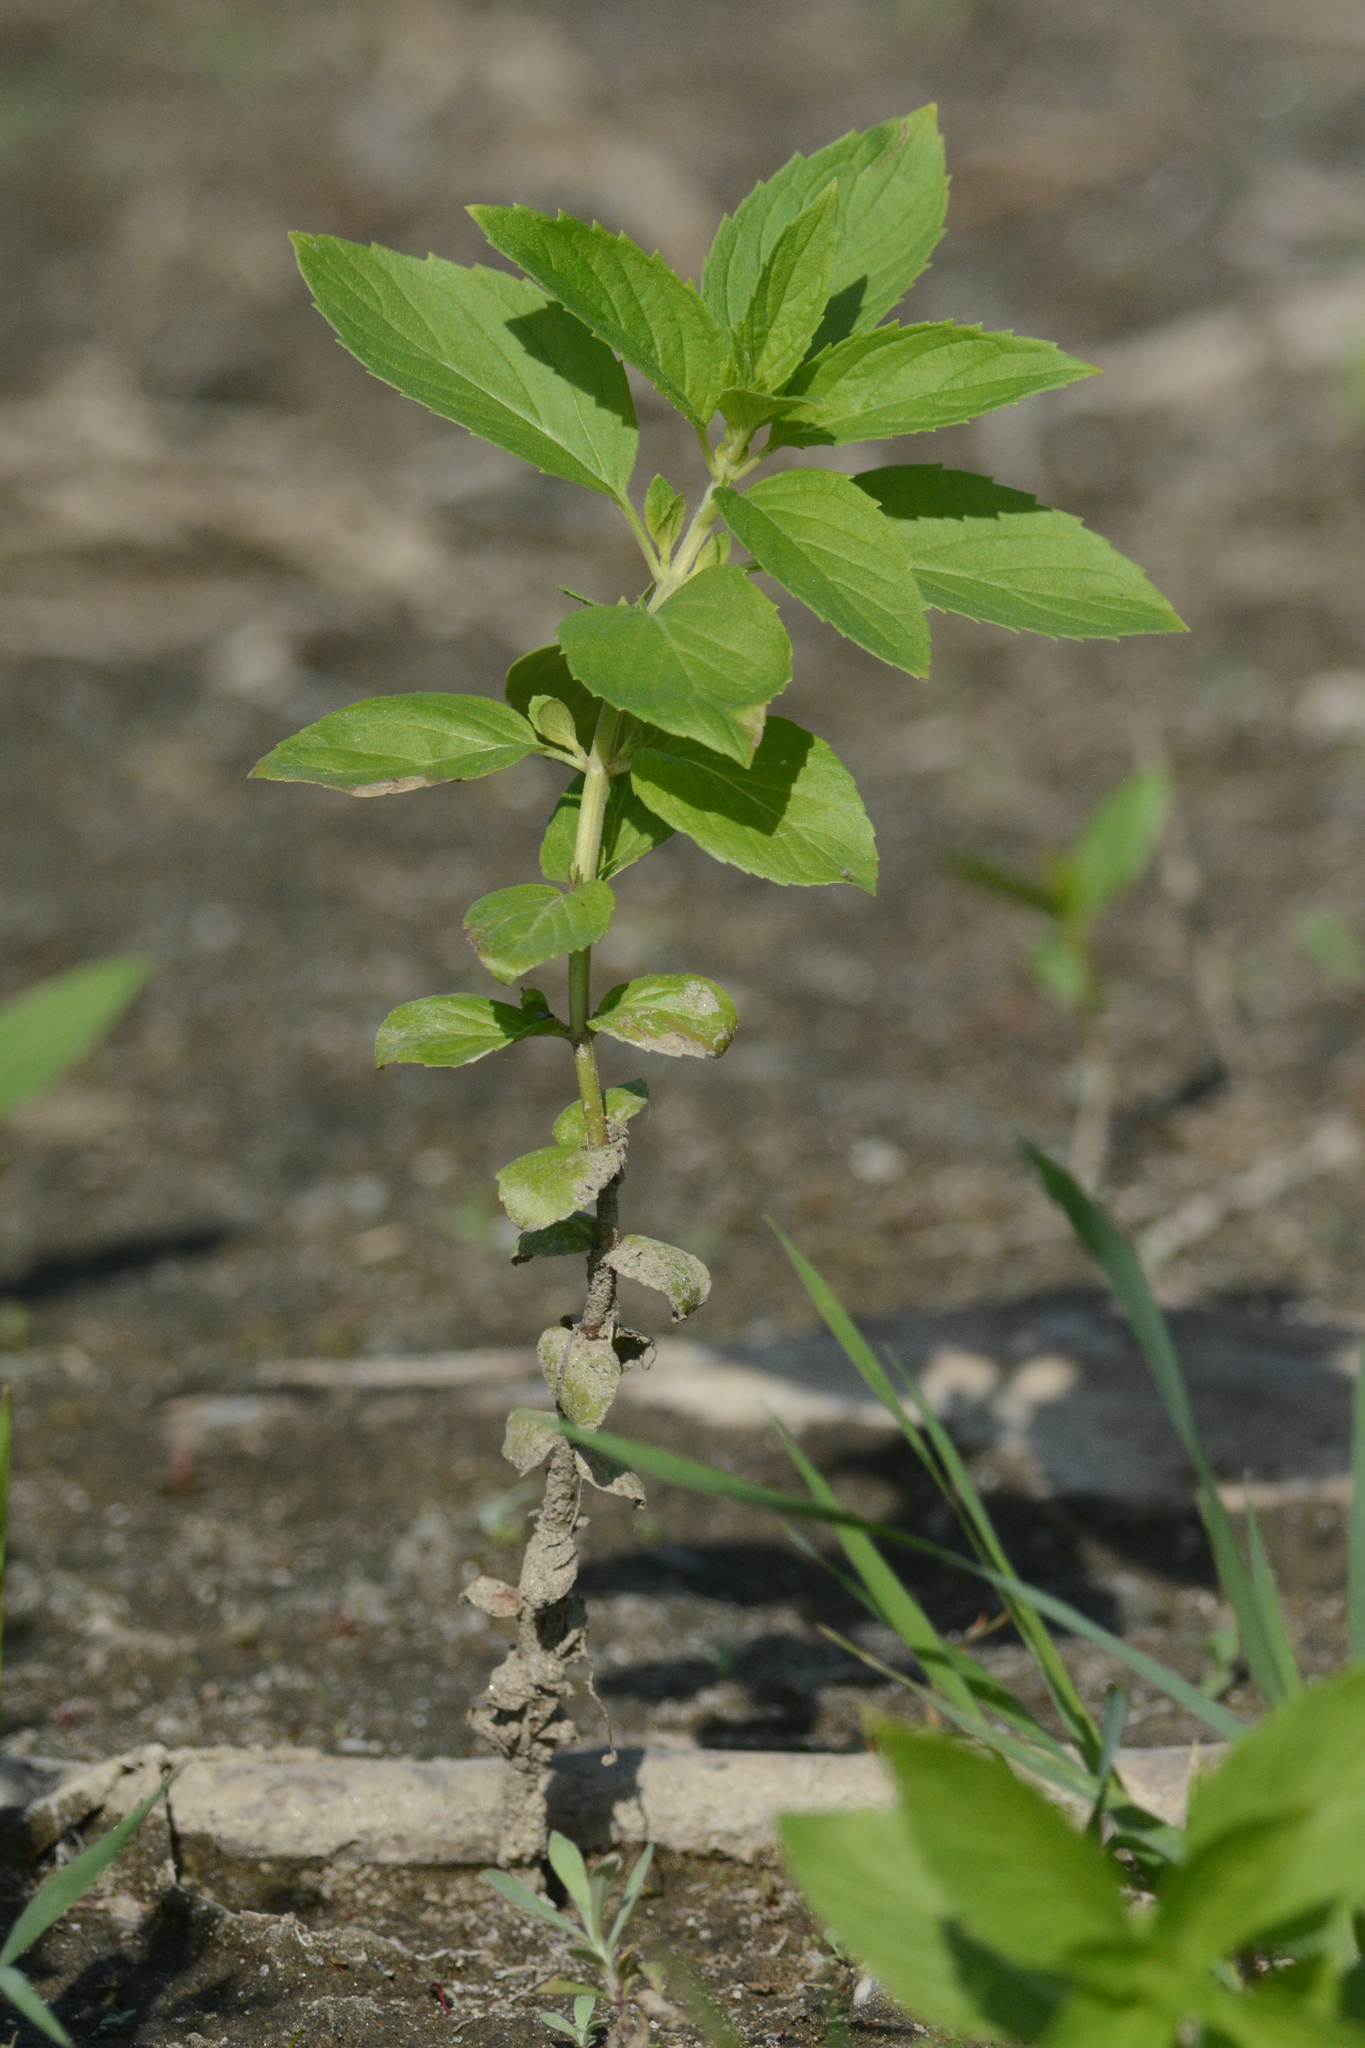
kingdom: Plantae
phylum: Tracheophyta
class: Magnoliopsida
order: Lamiales
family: Lamiaceae
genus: Mentha
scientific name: Mentha canadensis
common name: American corn mint
